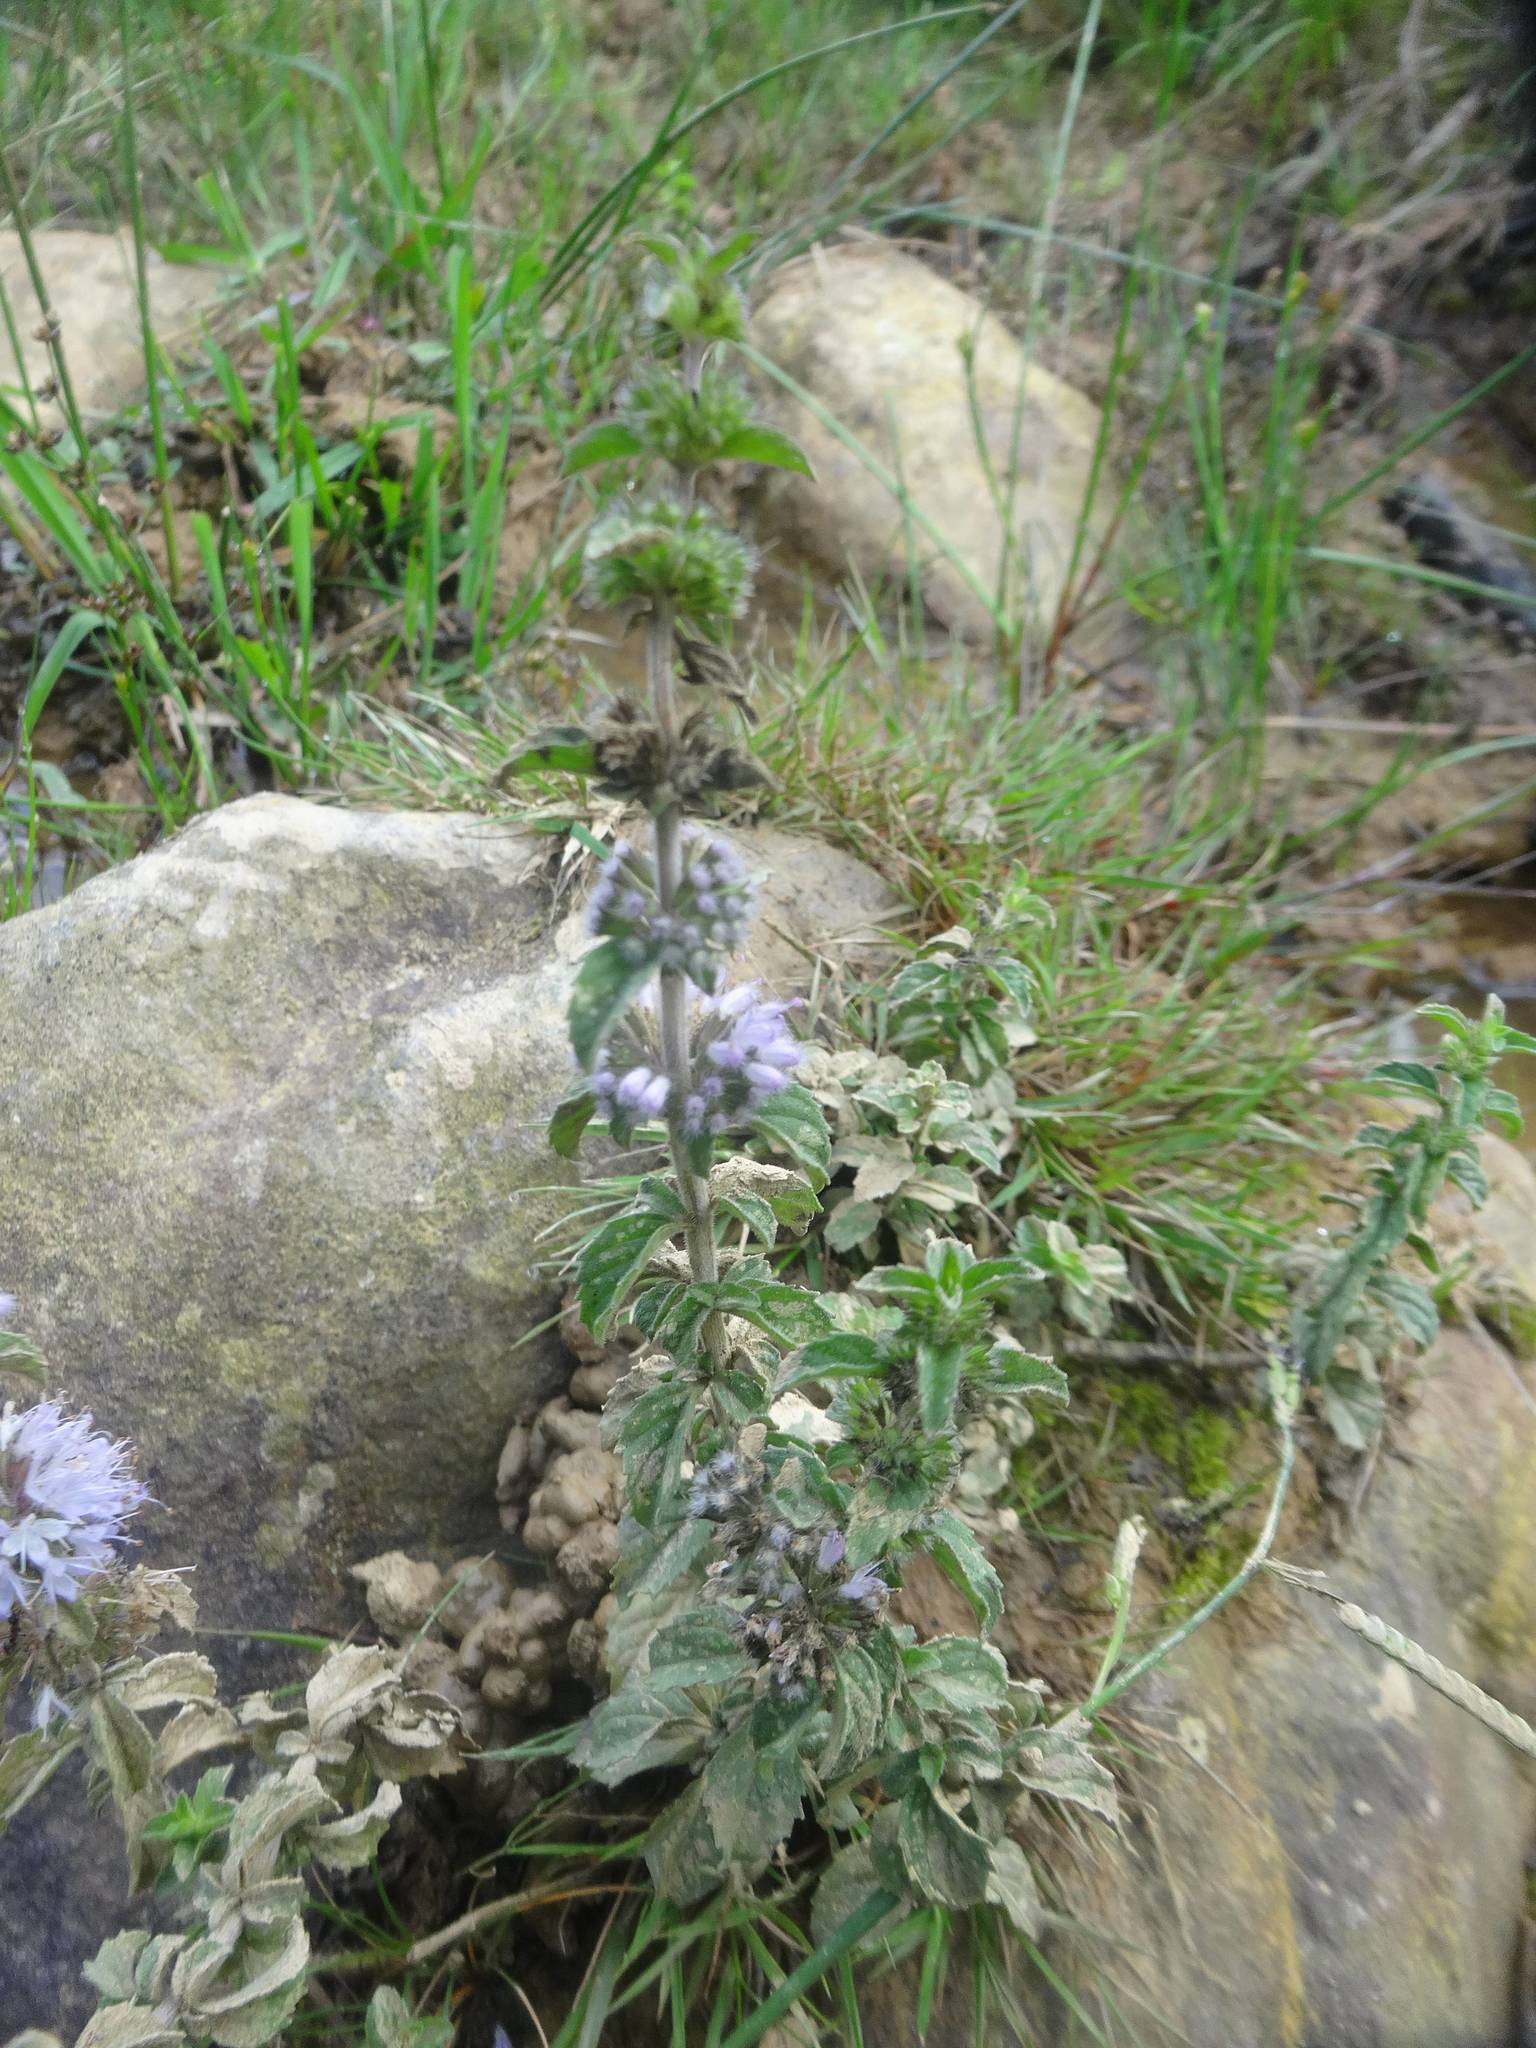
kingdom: Plantae
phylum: Tracheophyta
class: Magnoliopsida
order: Lamiales
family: Lamiaceae
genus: Mentha
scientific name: Mentha pulegium
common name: Pennyroyal
